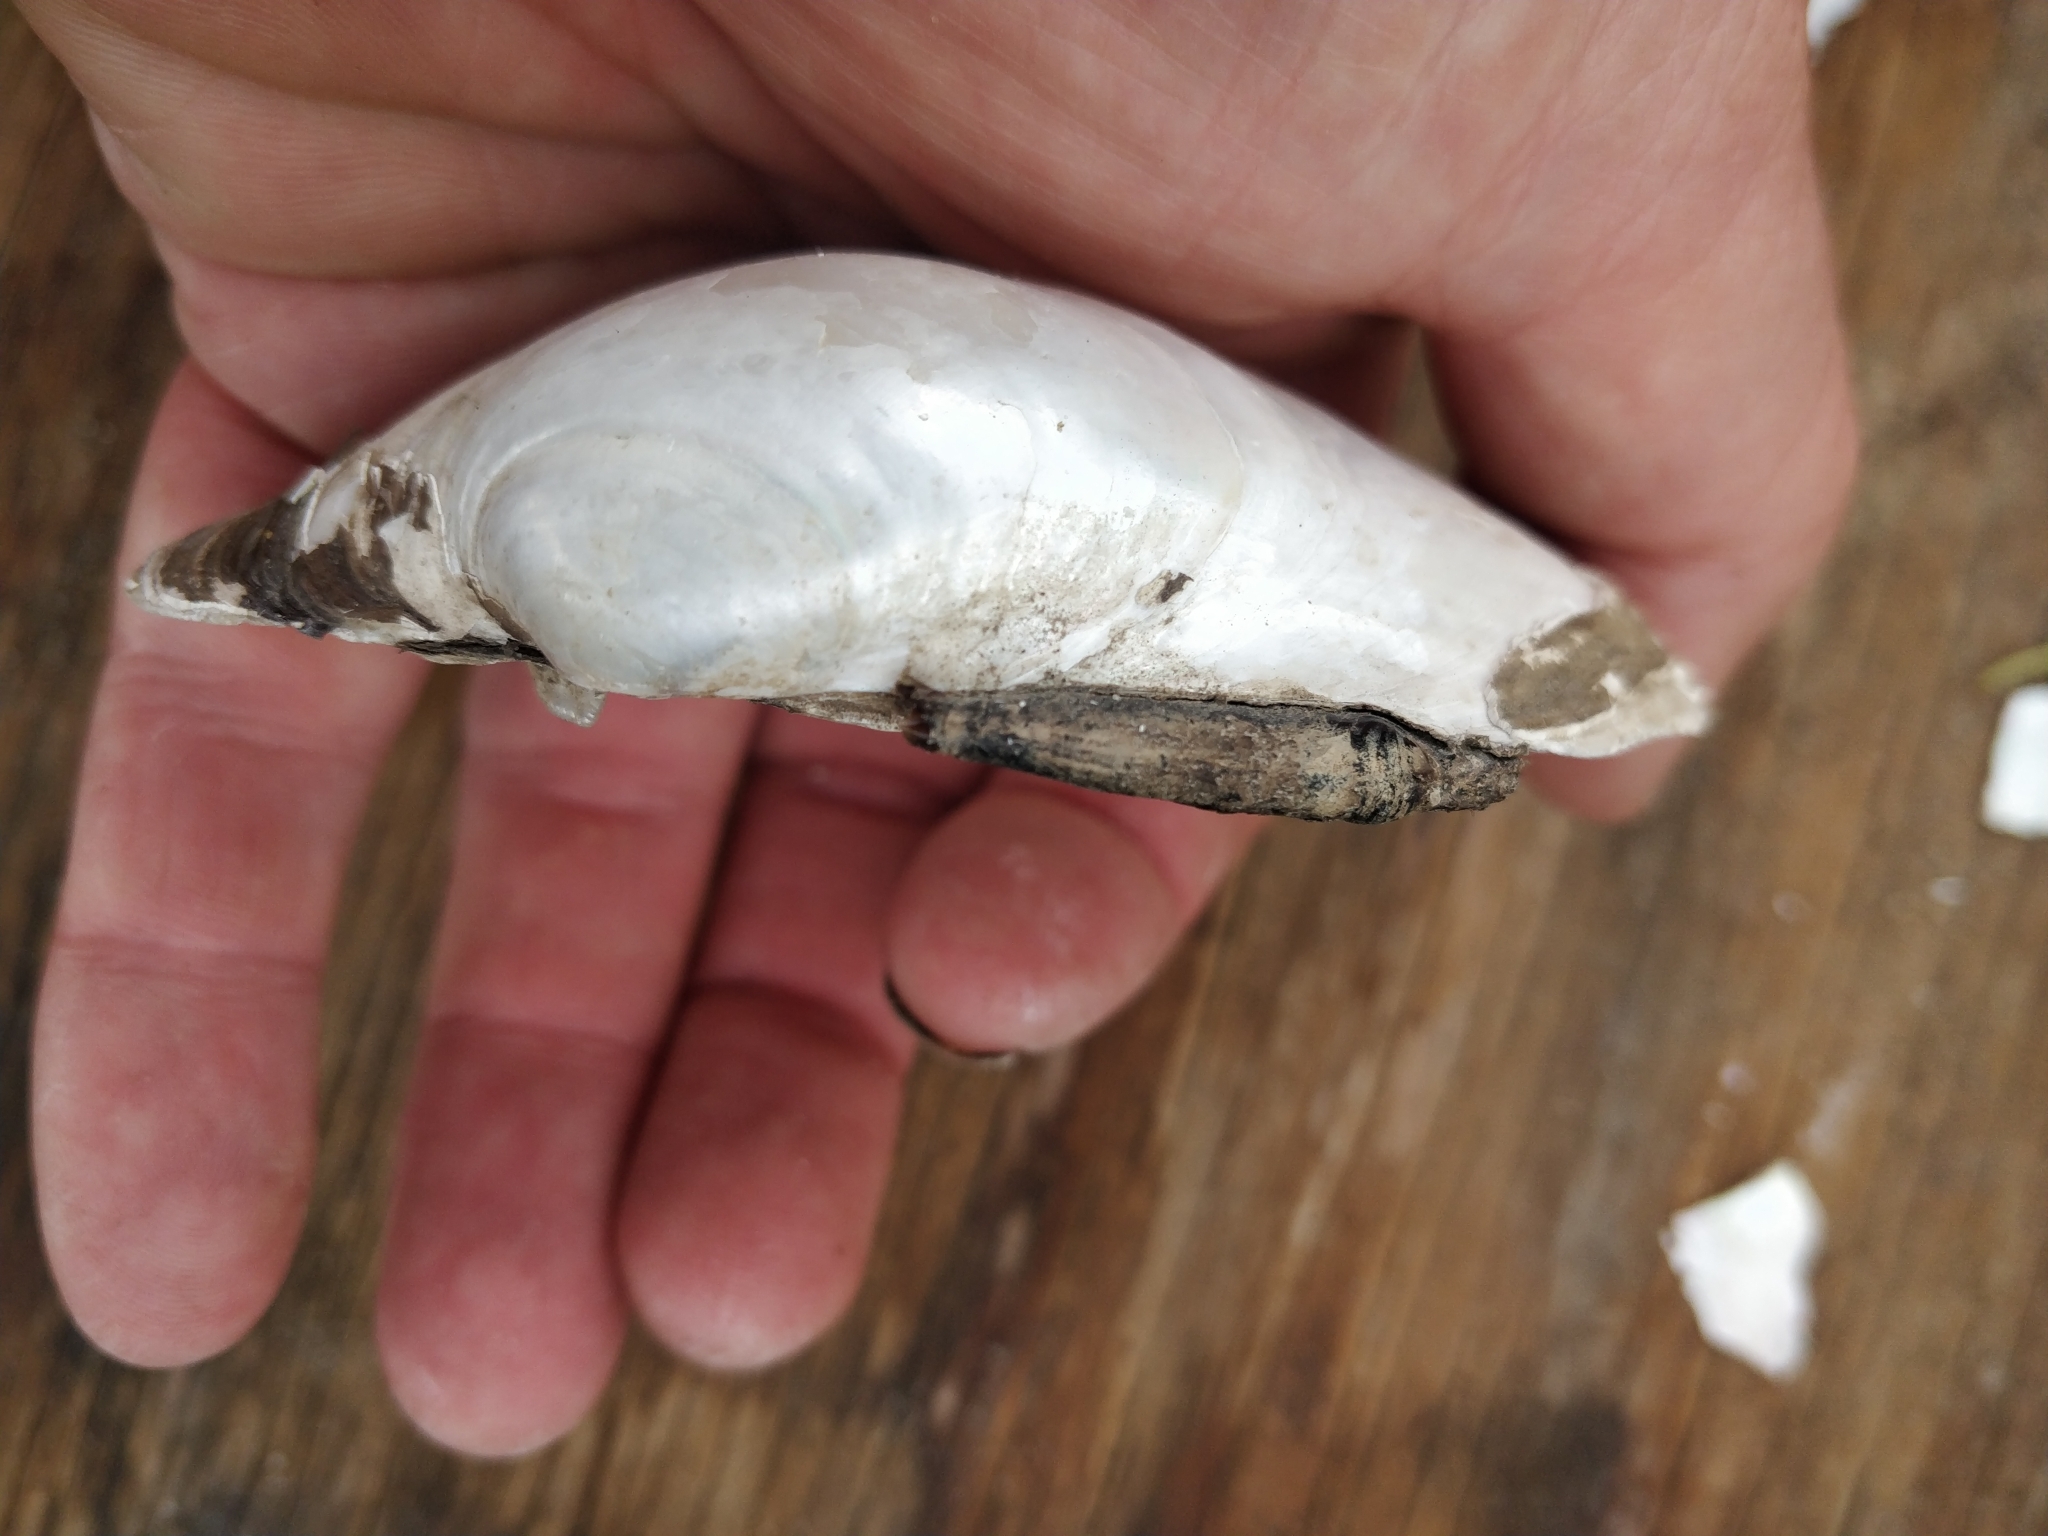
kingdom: Animalia
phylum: Mollusca
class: Bivalvia
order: Unionida
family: Unionidae
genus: Lampsilis
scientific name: Lampsilis cardium
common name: Plain pocketbook
